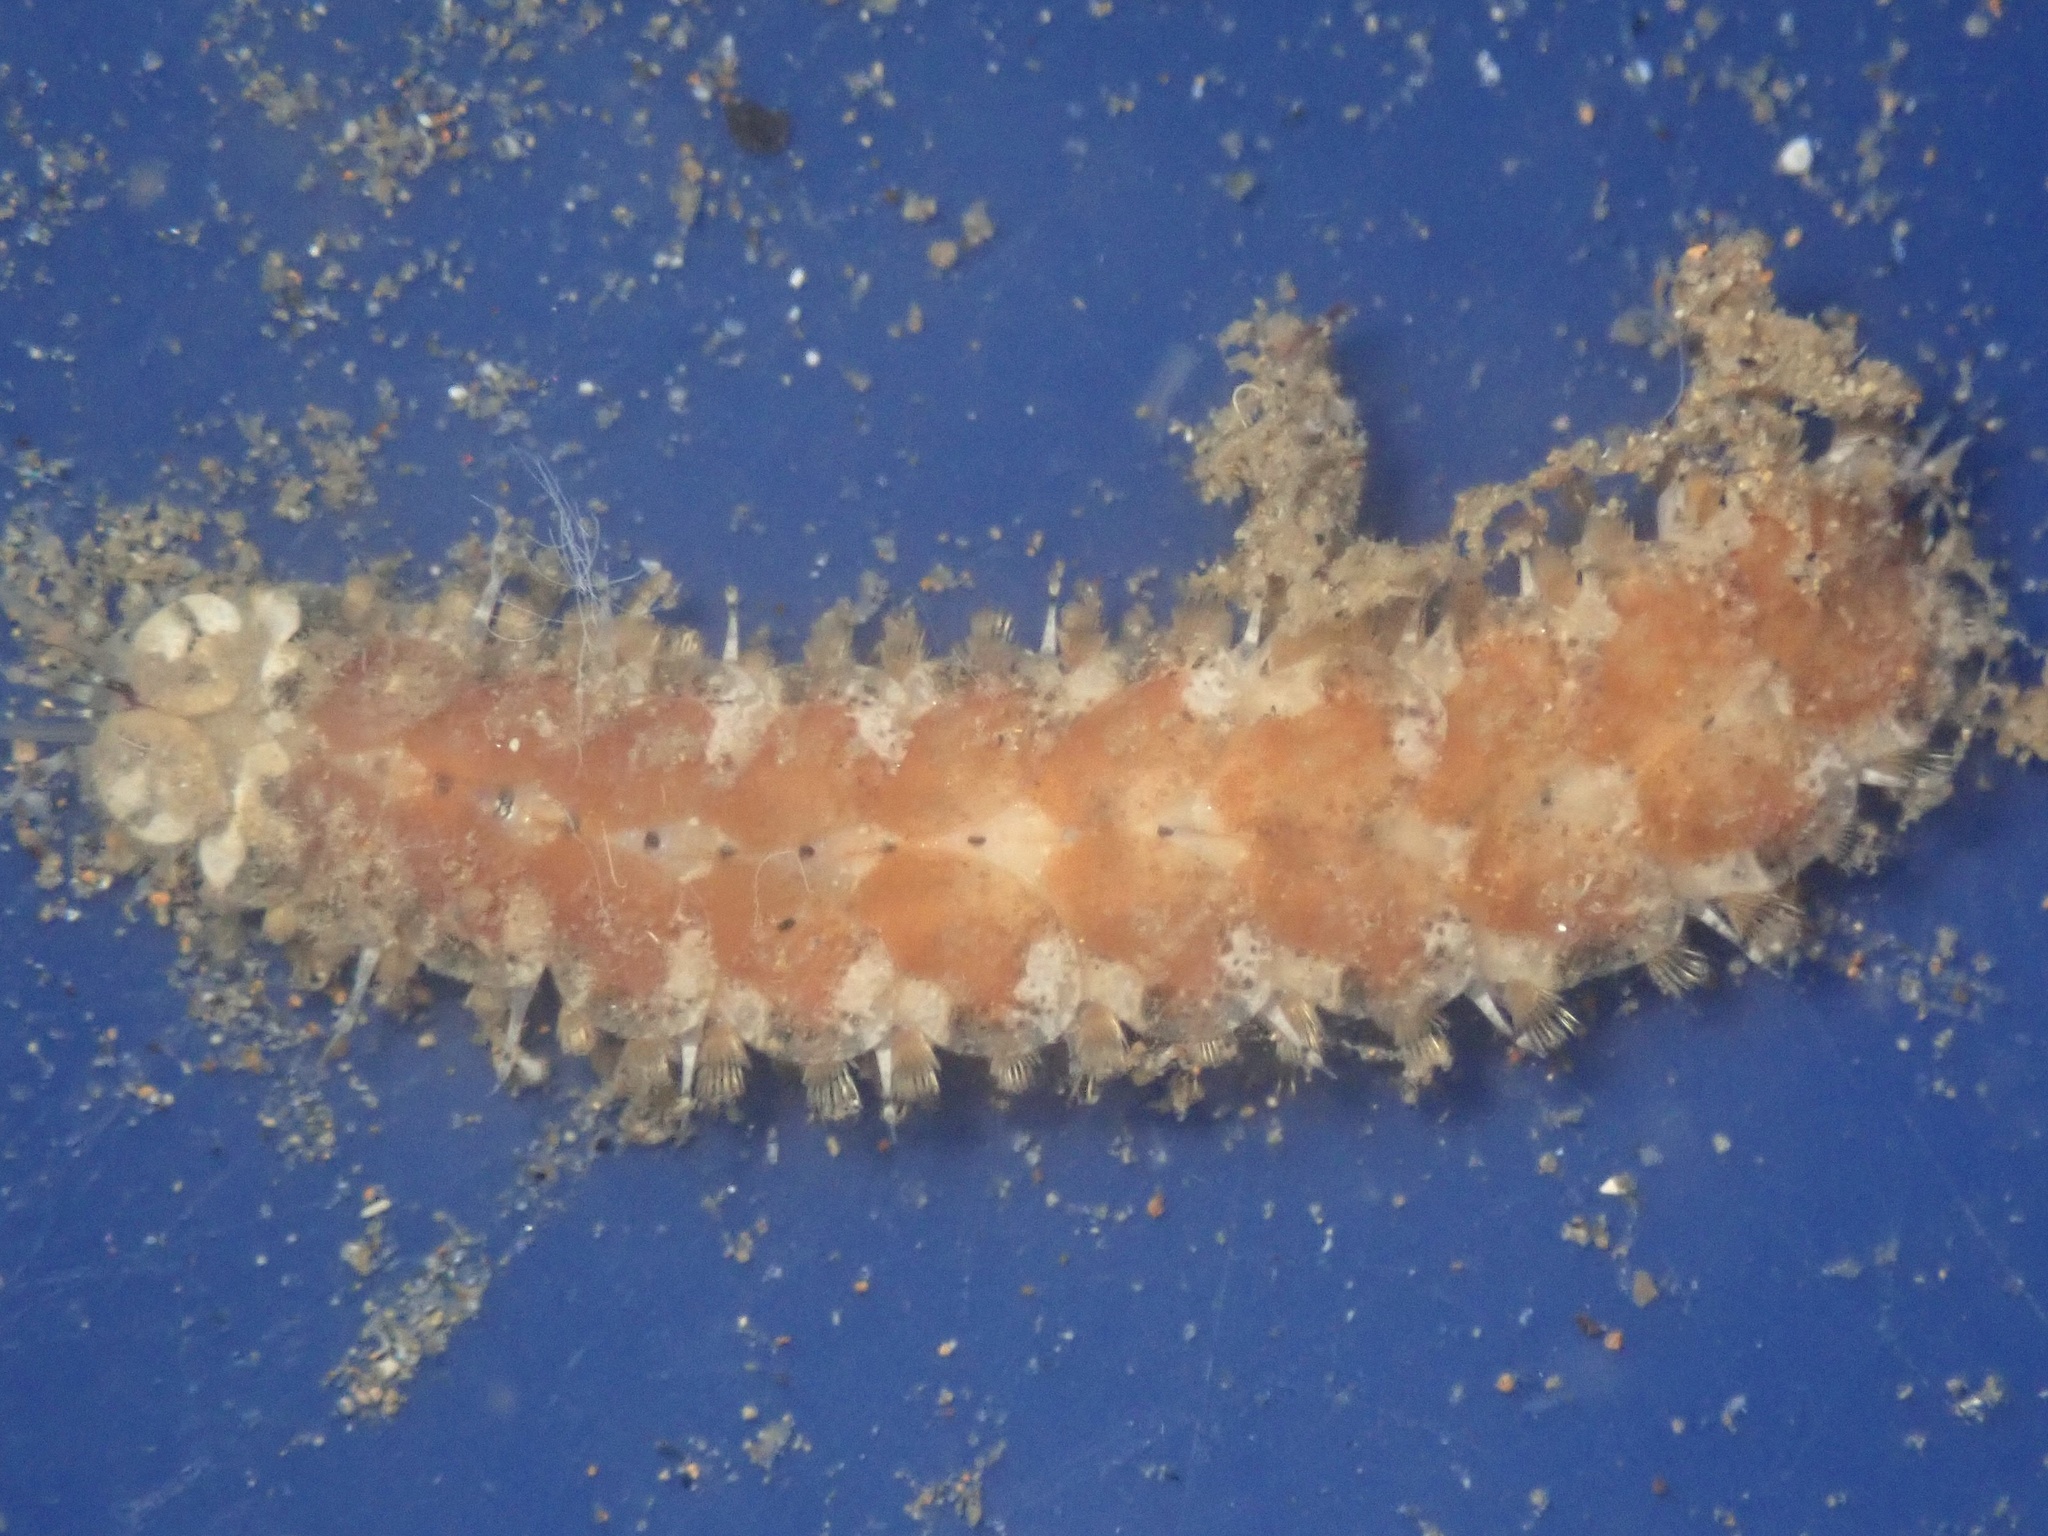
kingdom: Animalia
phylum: Annelida
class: Polychaeta
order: Phyllodocida
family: Polynoidae
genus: Thormora
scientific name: Thormora setosior
